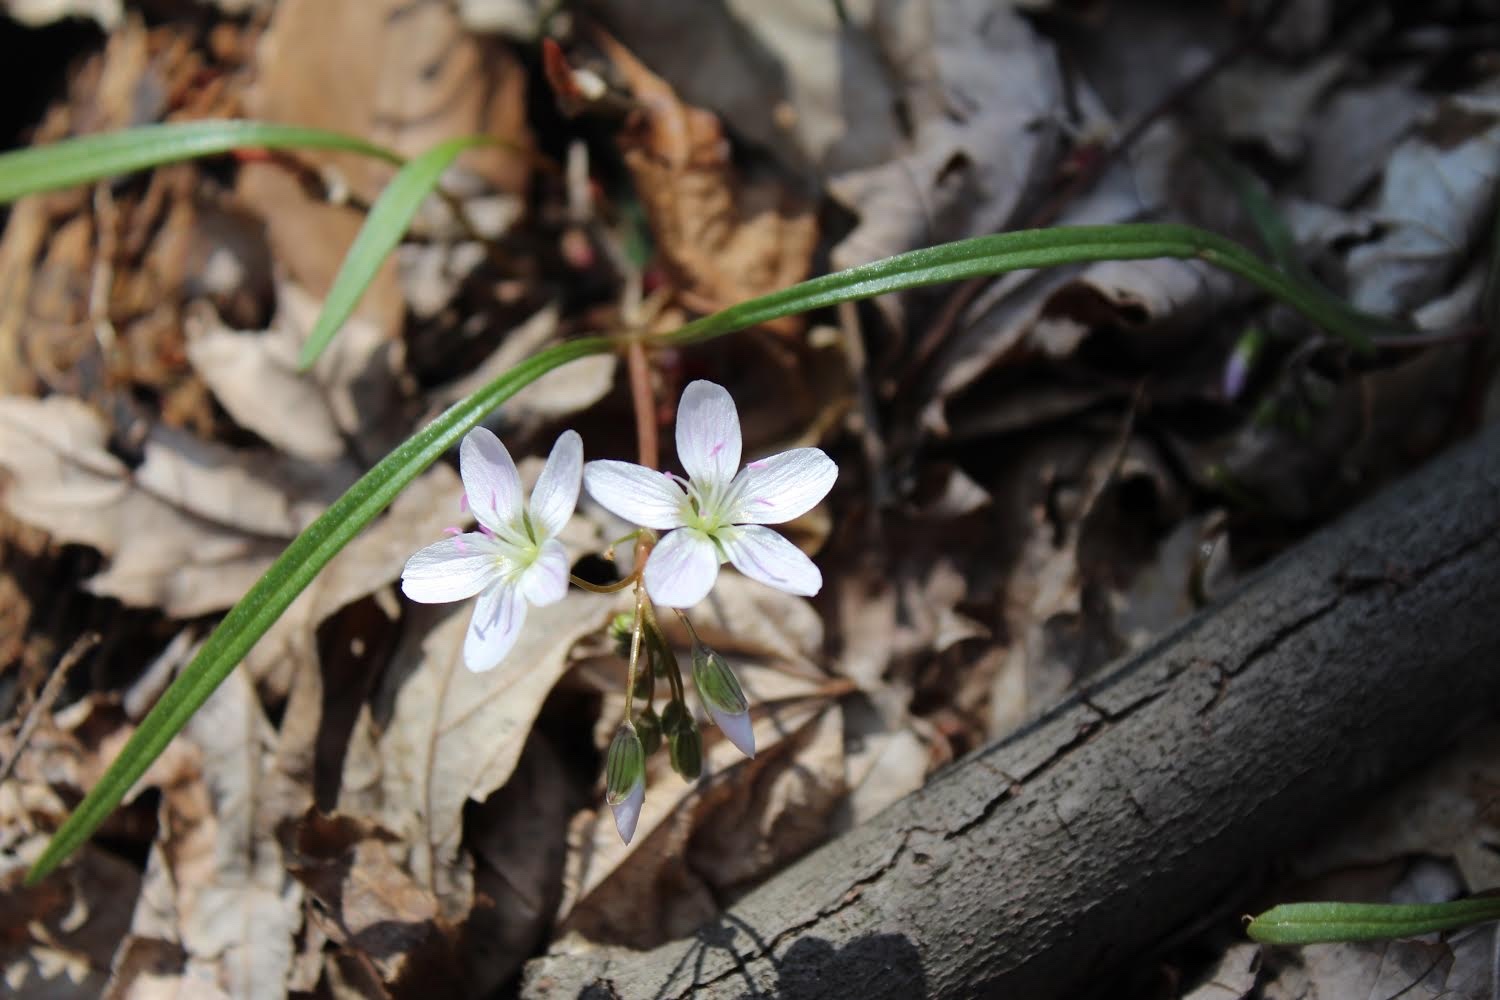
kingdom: Plantae
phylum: Tracheophyta
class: Magnoliopsida
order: Caryophyllales
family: Montiaceae
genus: Claytonia
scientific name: Claytonia virginica
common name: Virginia springbeauty
